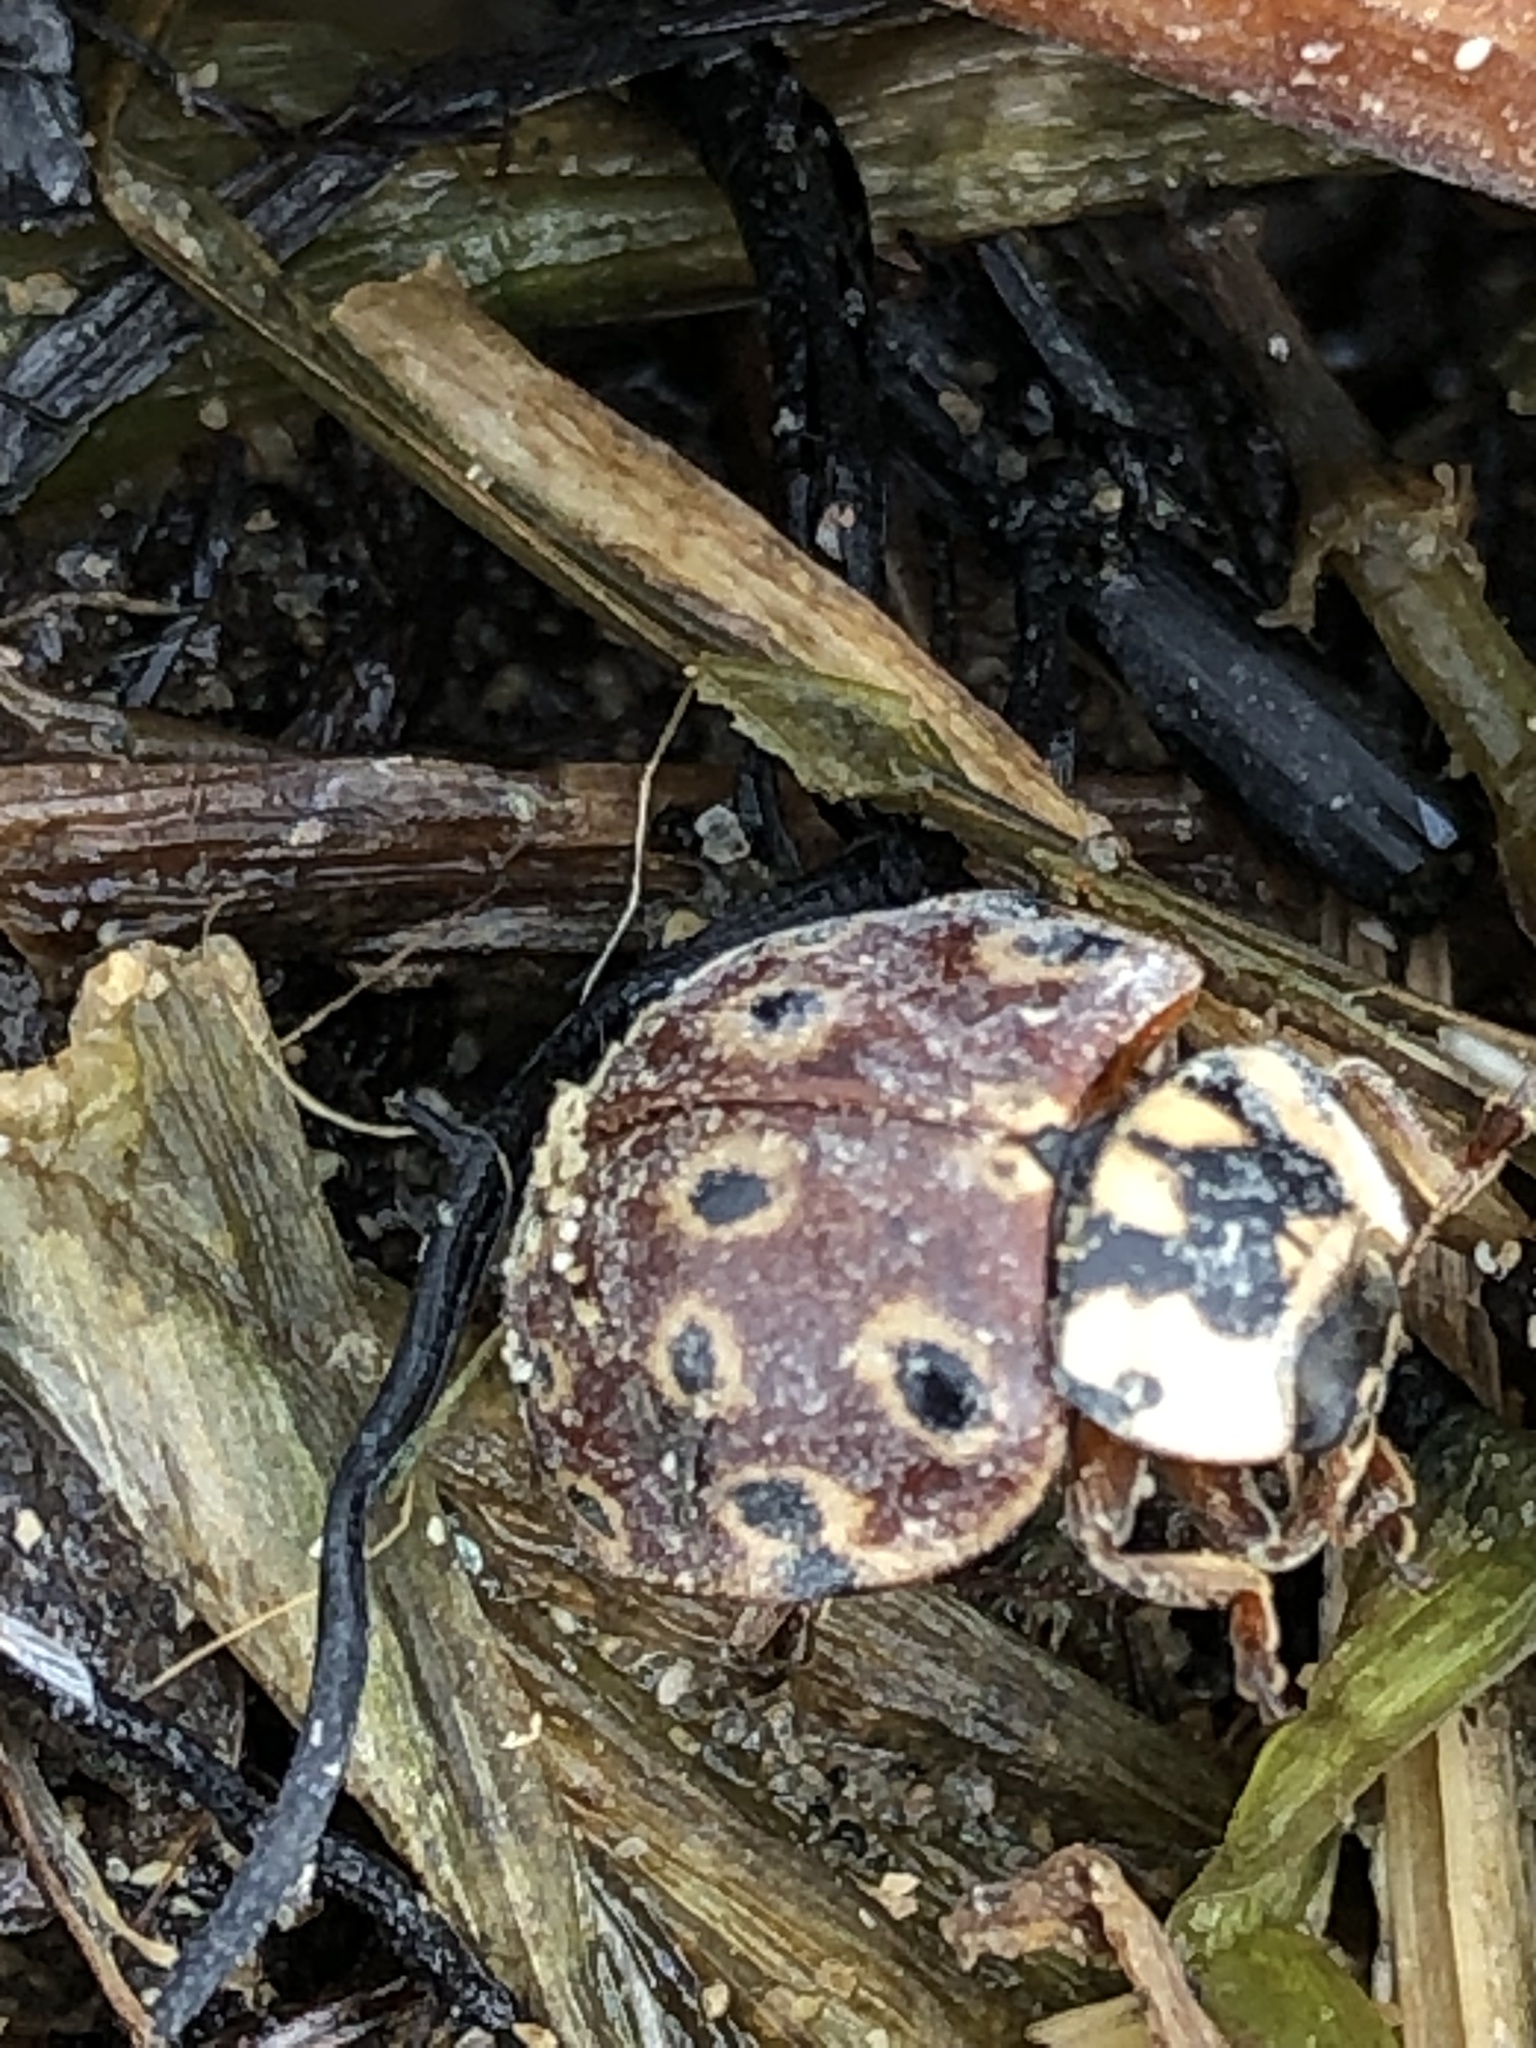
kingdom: Animalia
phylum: Arthropoda
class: Insecta
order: Coleoptera
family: Coccinellidae
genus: Anatis
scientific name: Anatis mali
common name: Eye-spotted lady beetle
